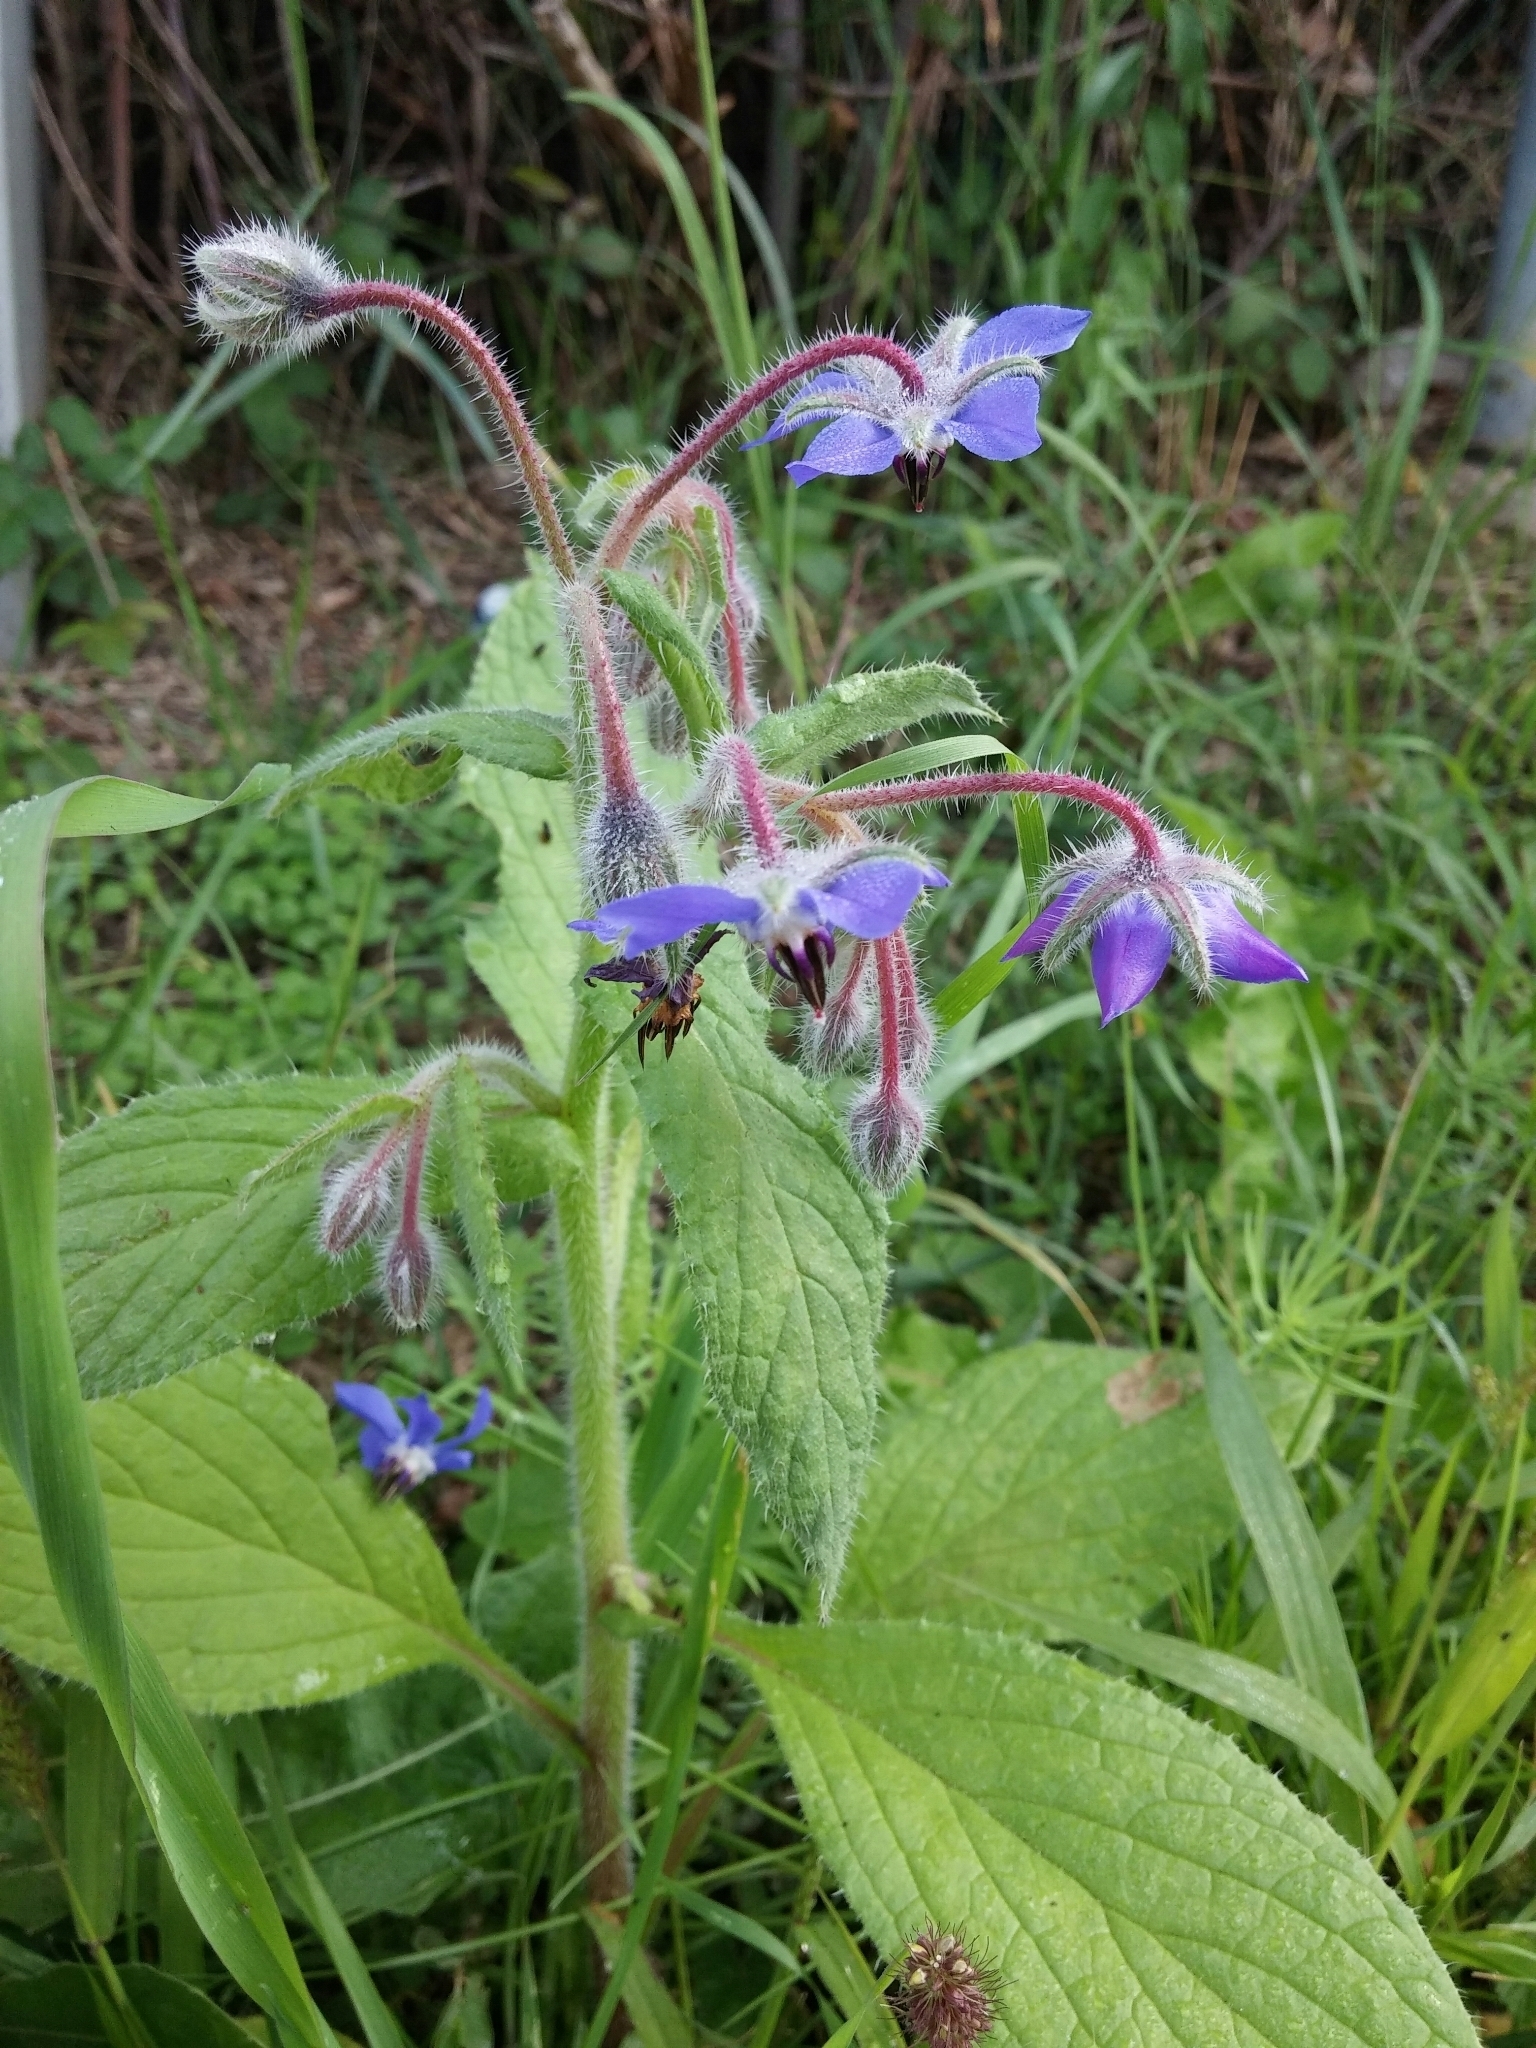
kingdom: Plantae
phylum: Tracheophyta
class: Magnoliopsida
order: Boraginales
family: Boraginaceae
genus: Borago
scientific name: Borago officinalis
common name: Borage
